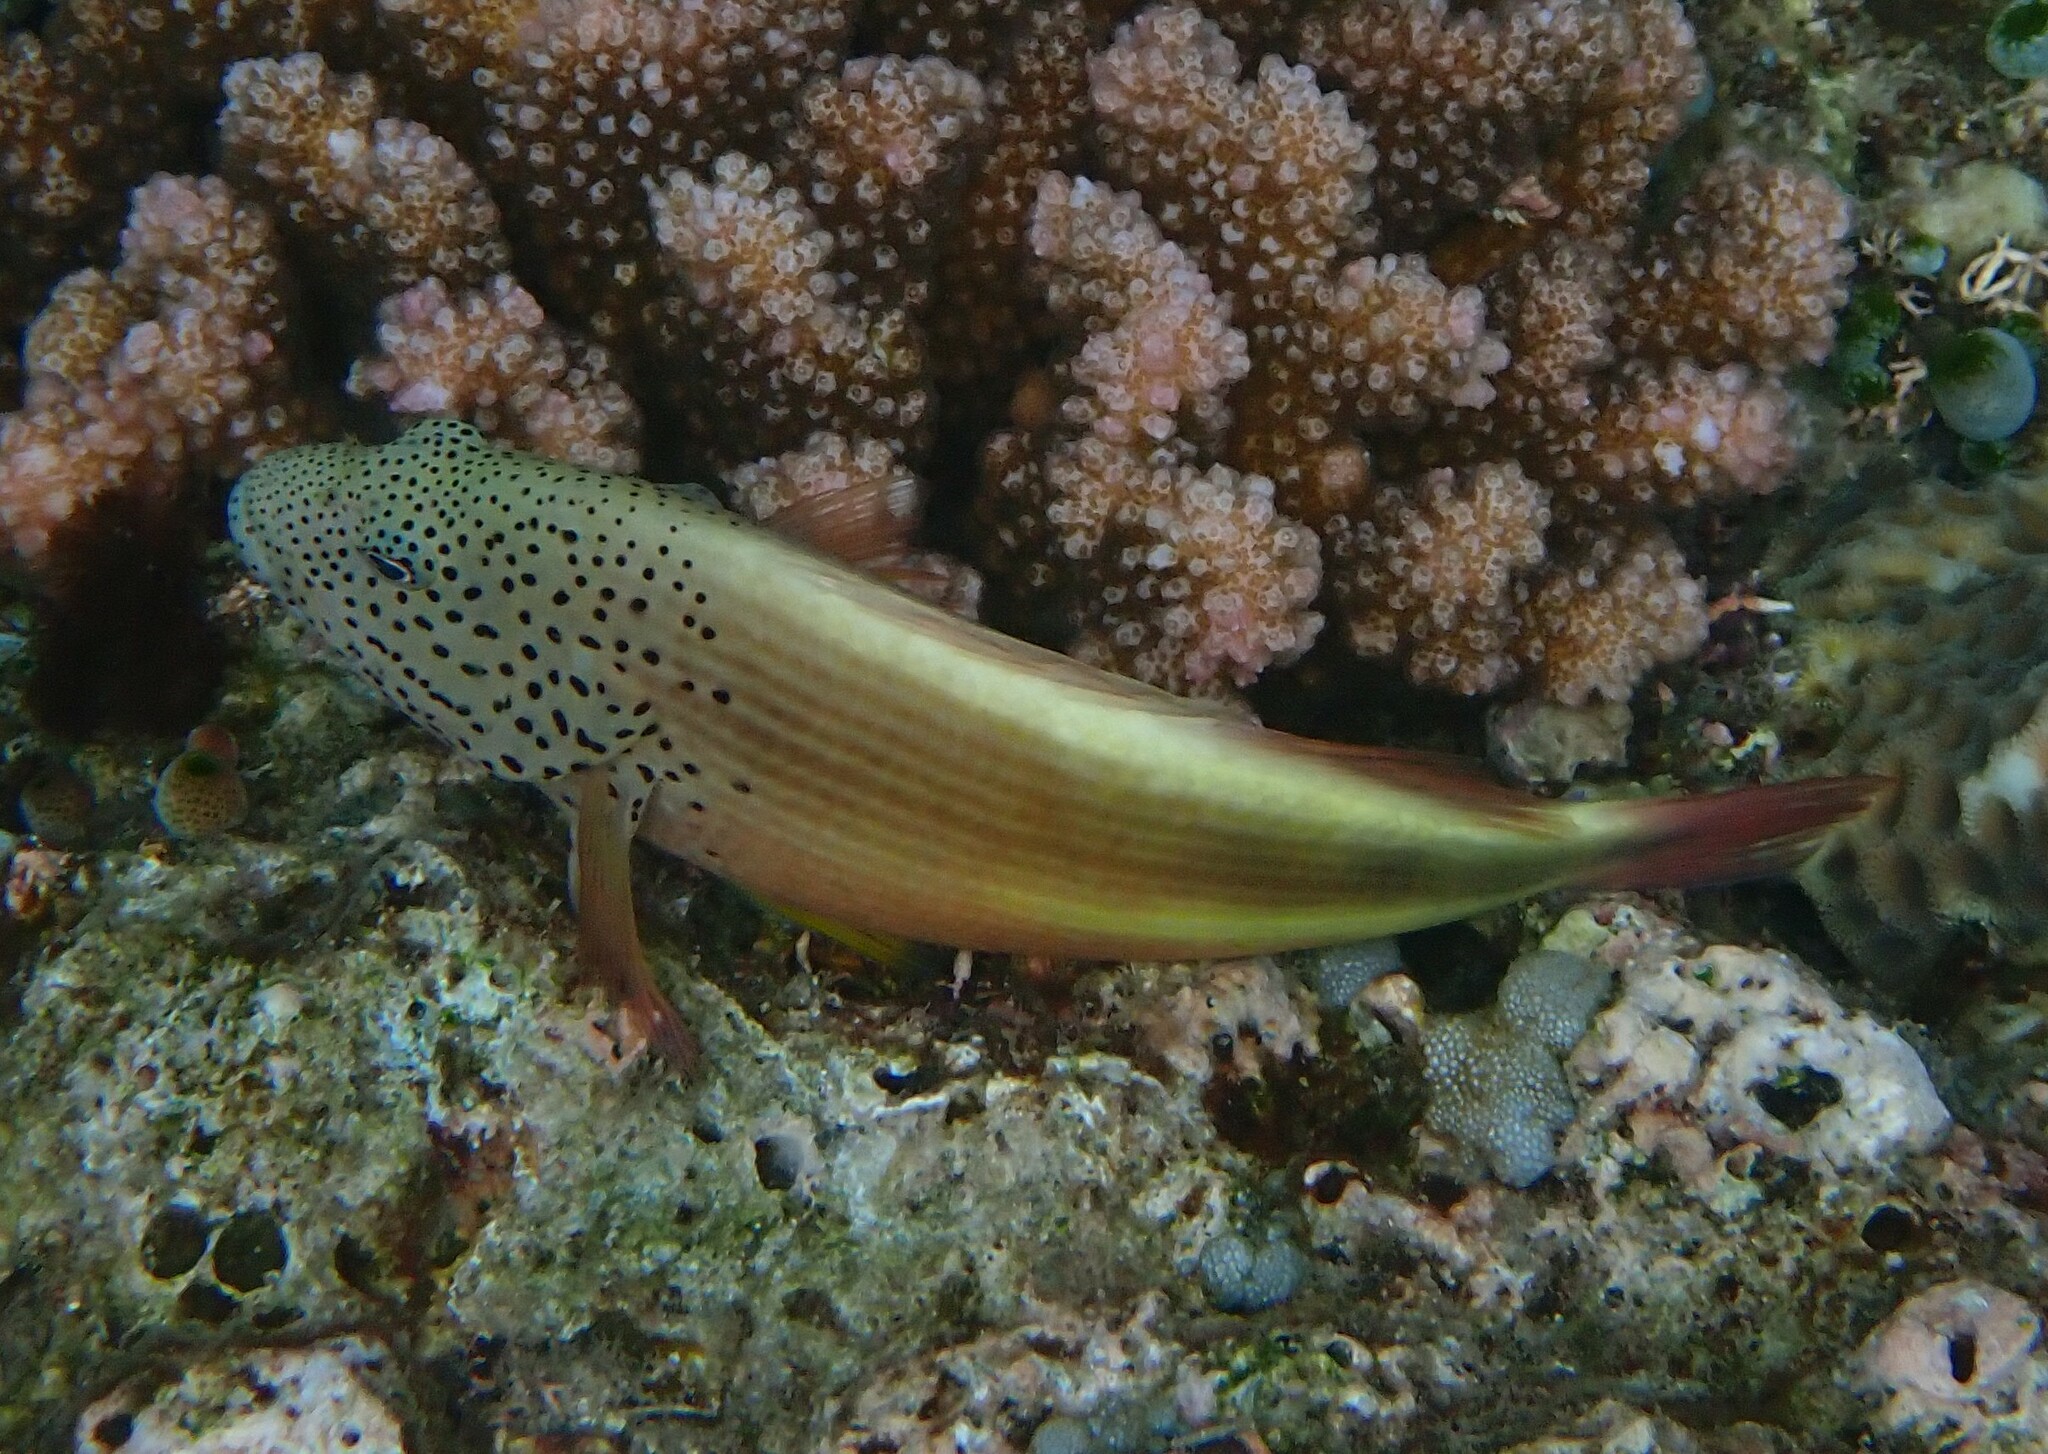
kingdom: Animalia
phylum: Chordata
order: Perciformes
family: Cirrhitidae
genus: Paracirrhites
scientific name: Paracirrhites forsteri
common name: Freckled hawkfish
